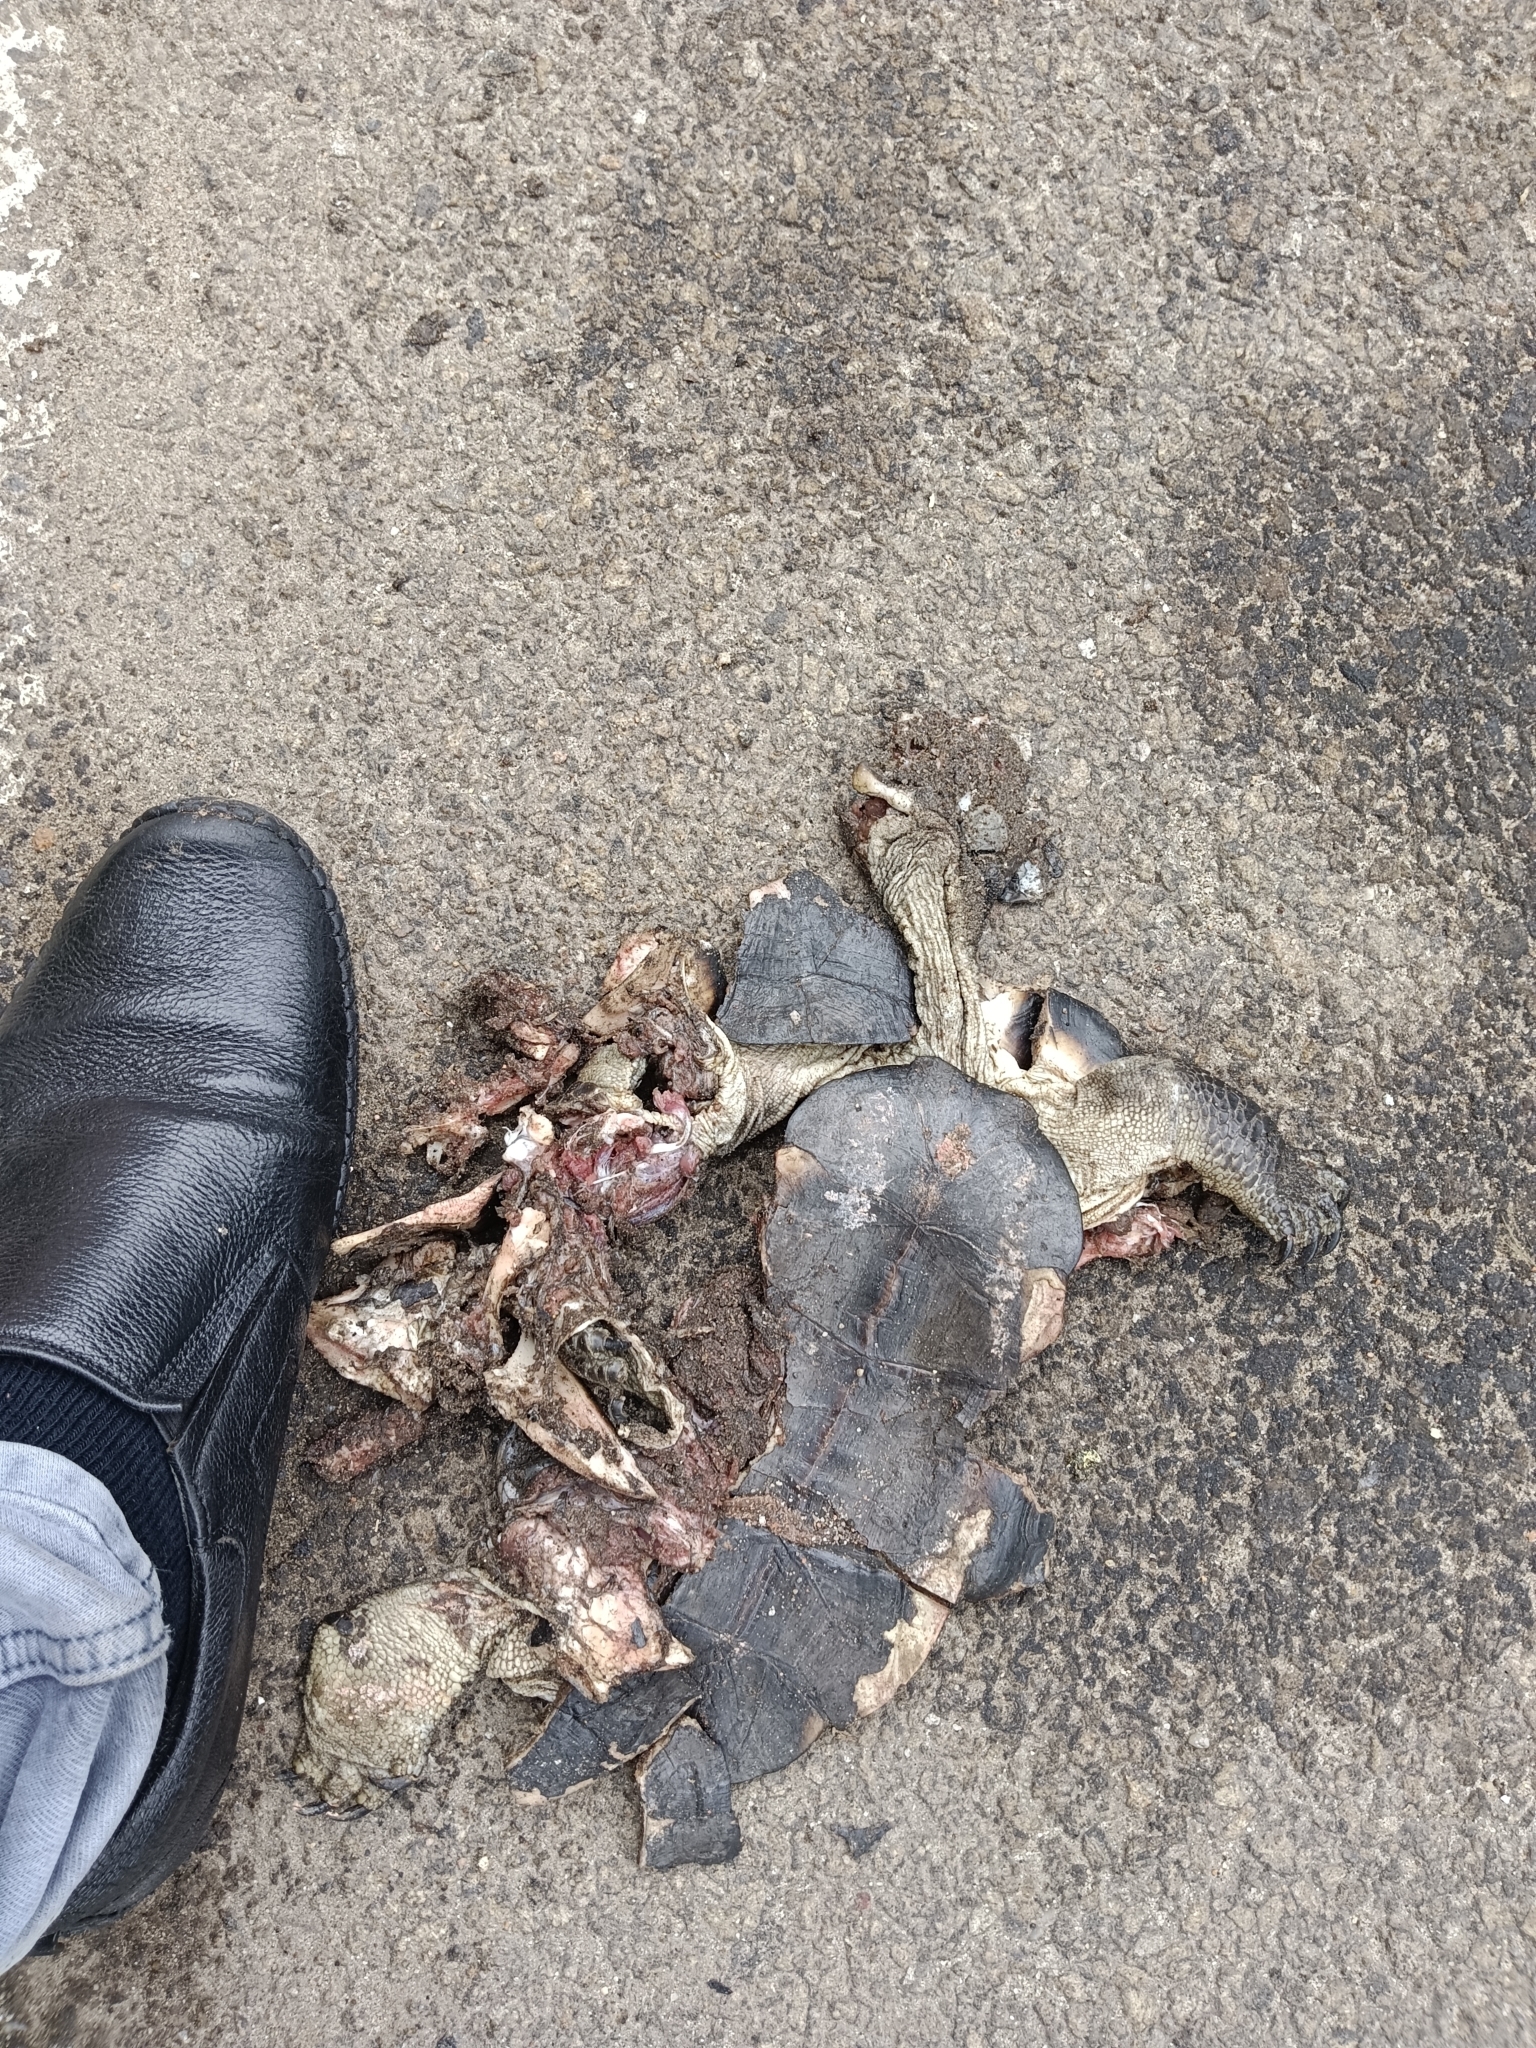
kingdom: Animalia
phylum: Chordata
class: Testudines
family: Geoemydidae
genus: Melanochelys
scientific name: Melanochelys trijuga
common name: Indian black turtle
